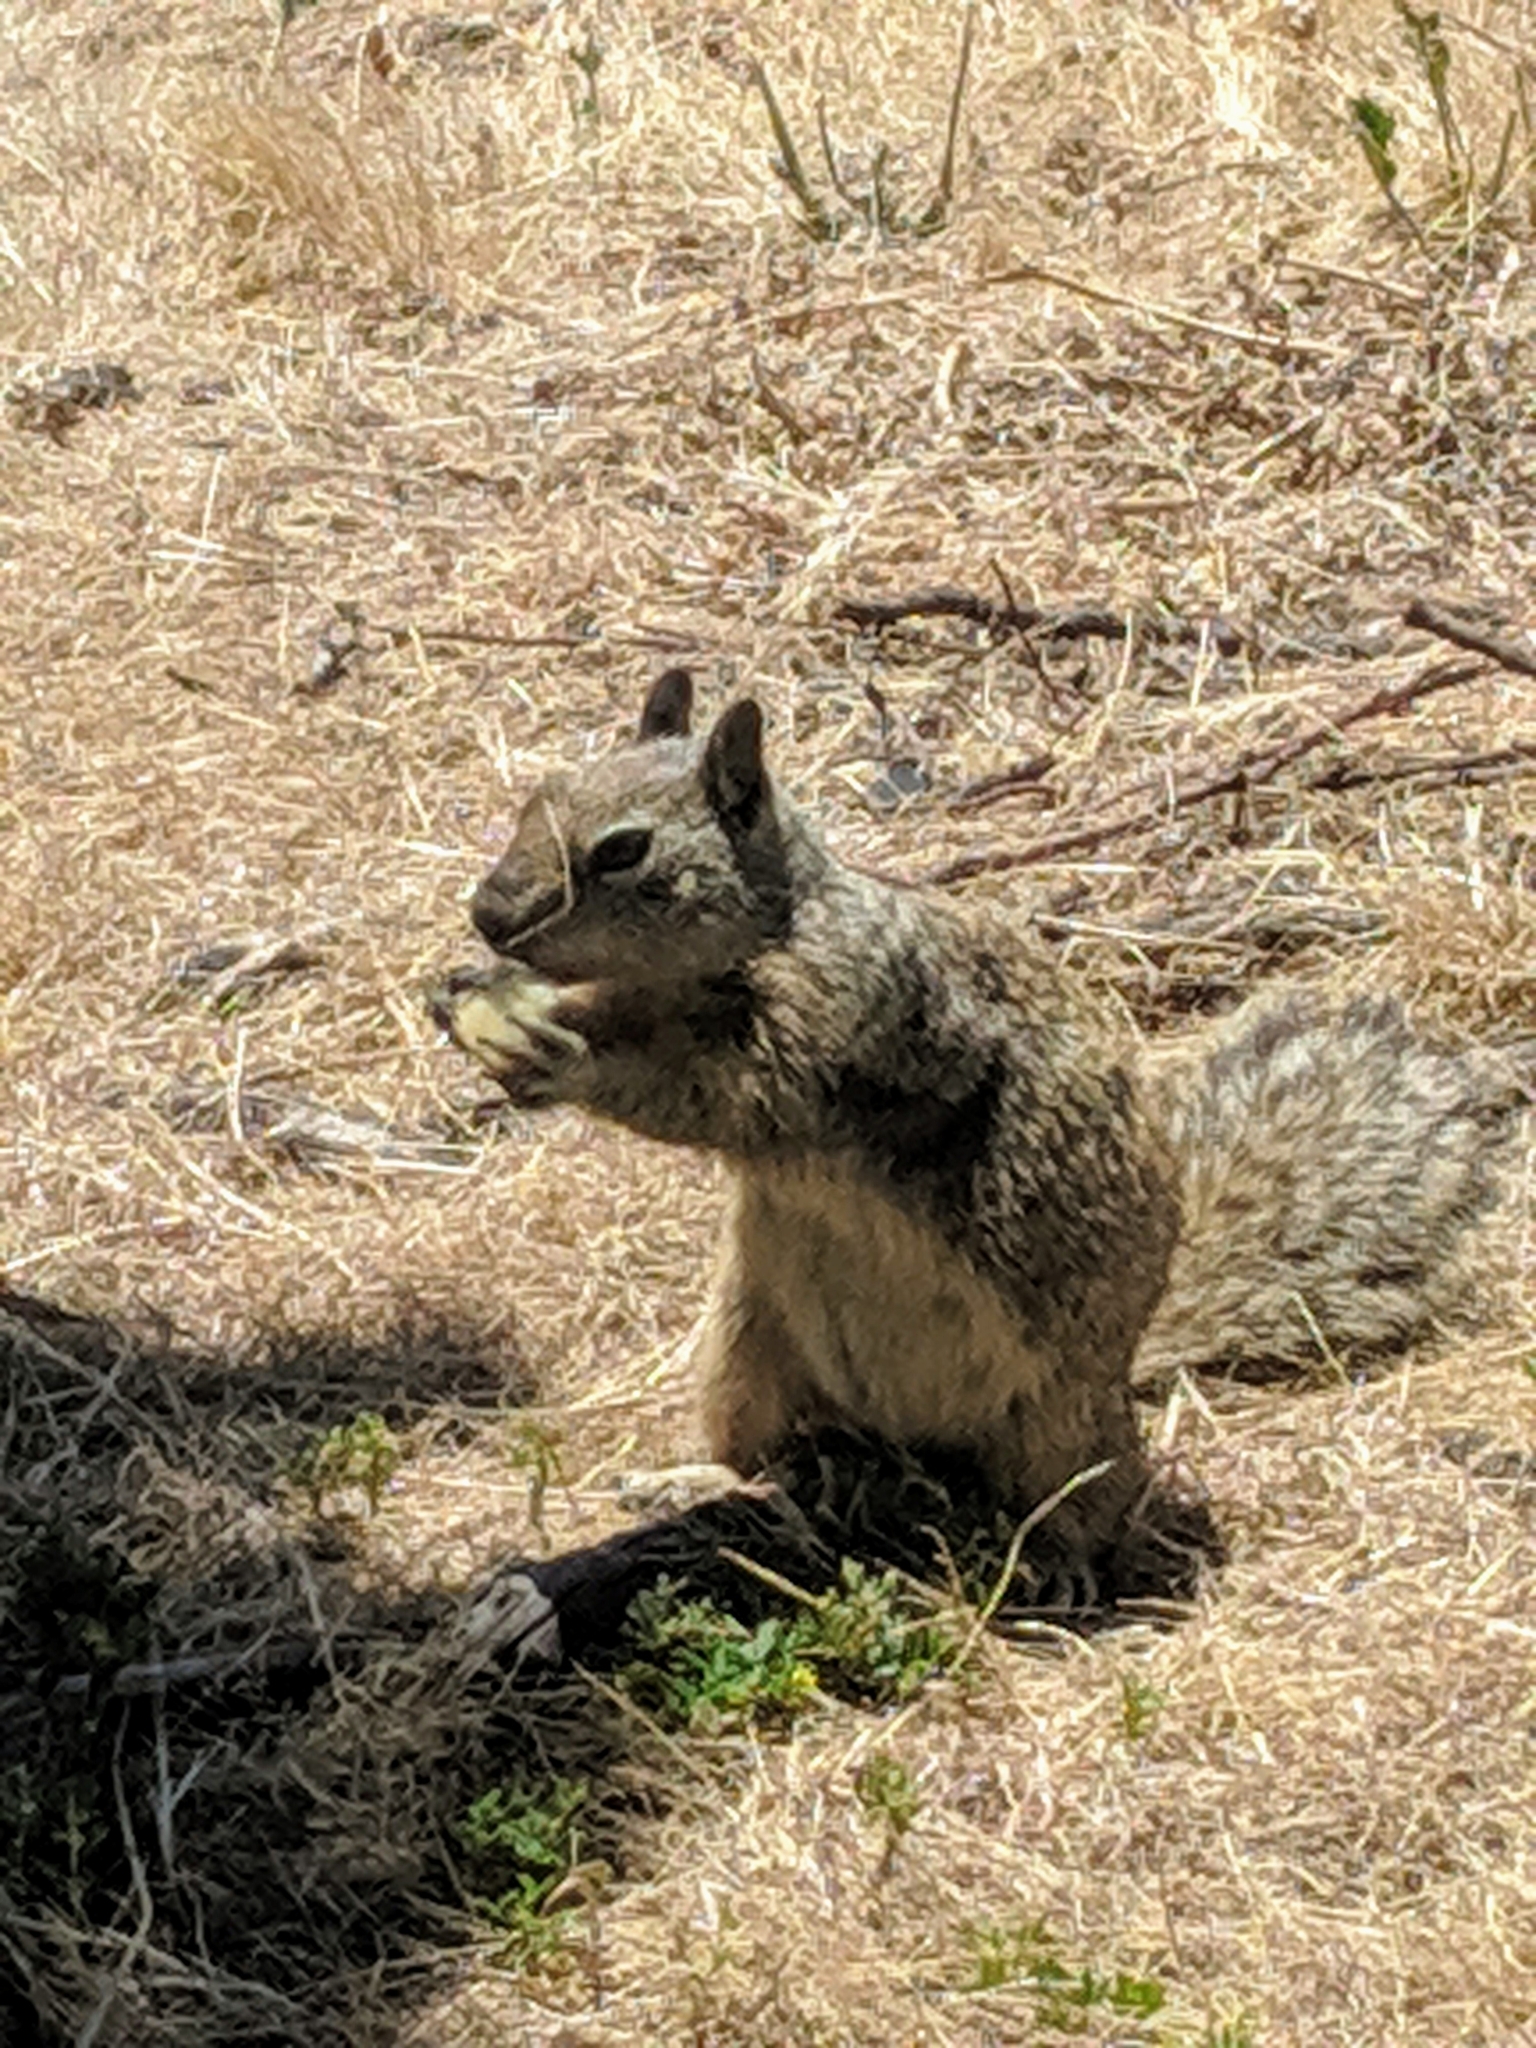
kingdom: Animalia
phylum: Chordata
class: Mammalia
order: Rodentia
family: Sciuridae
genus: Otospermophilus
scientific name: Otospermophilus beecheyi
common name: California ground squirrel
